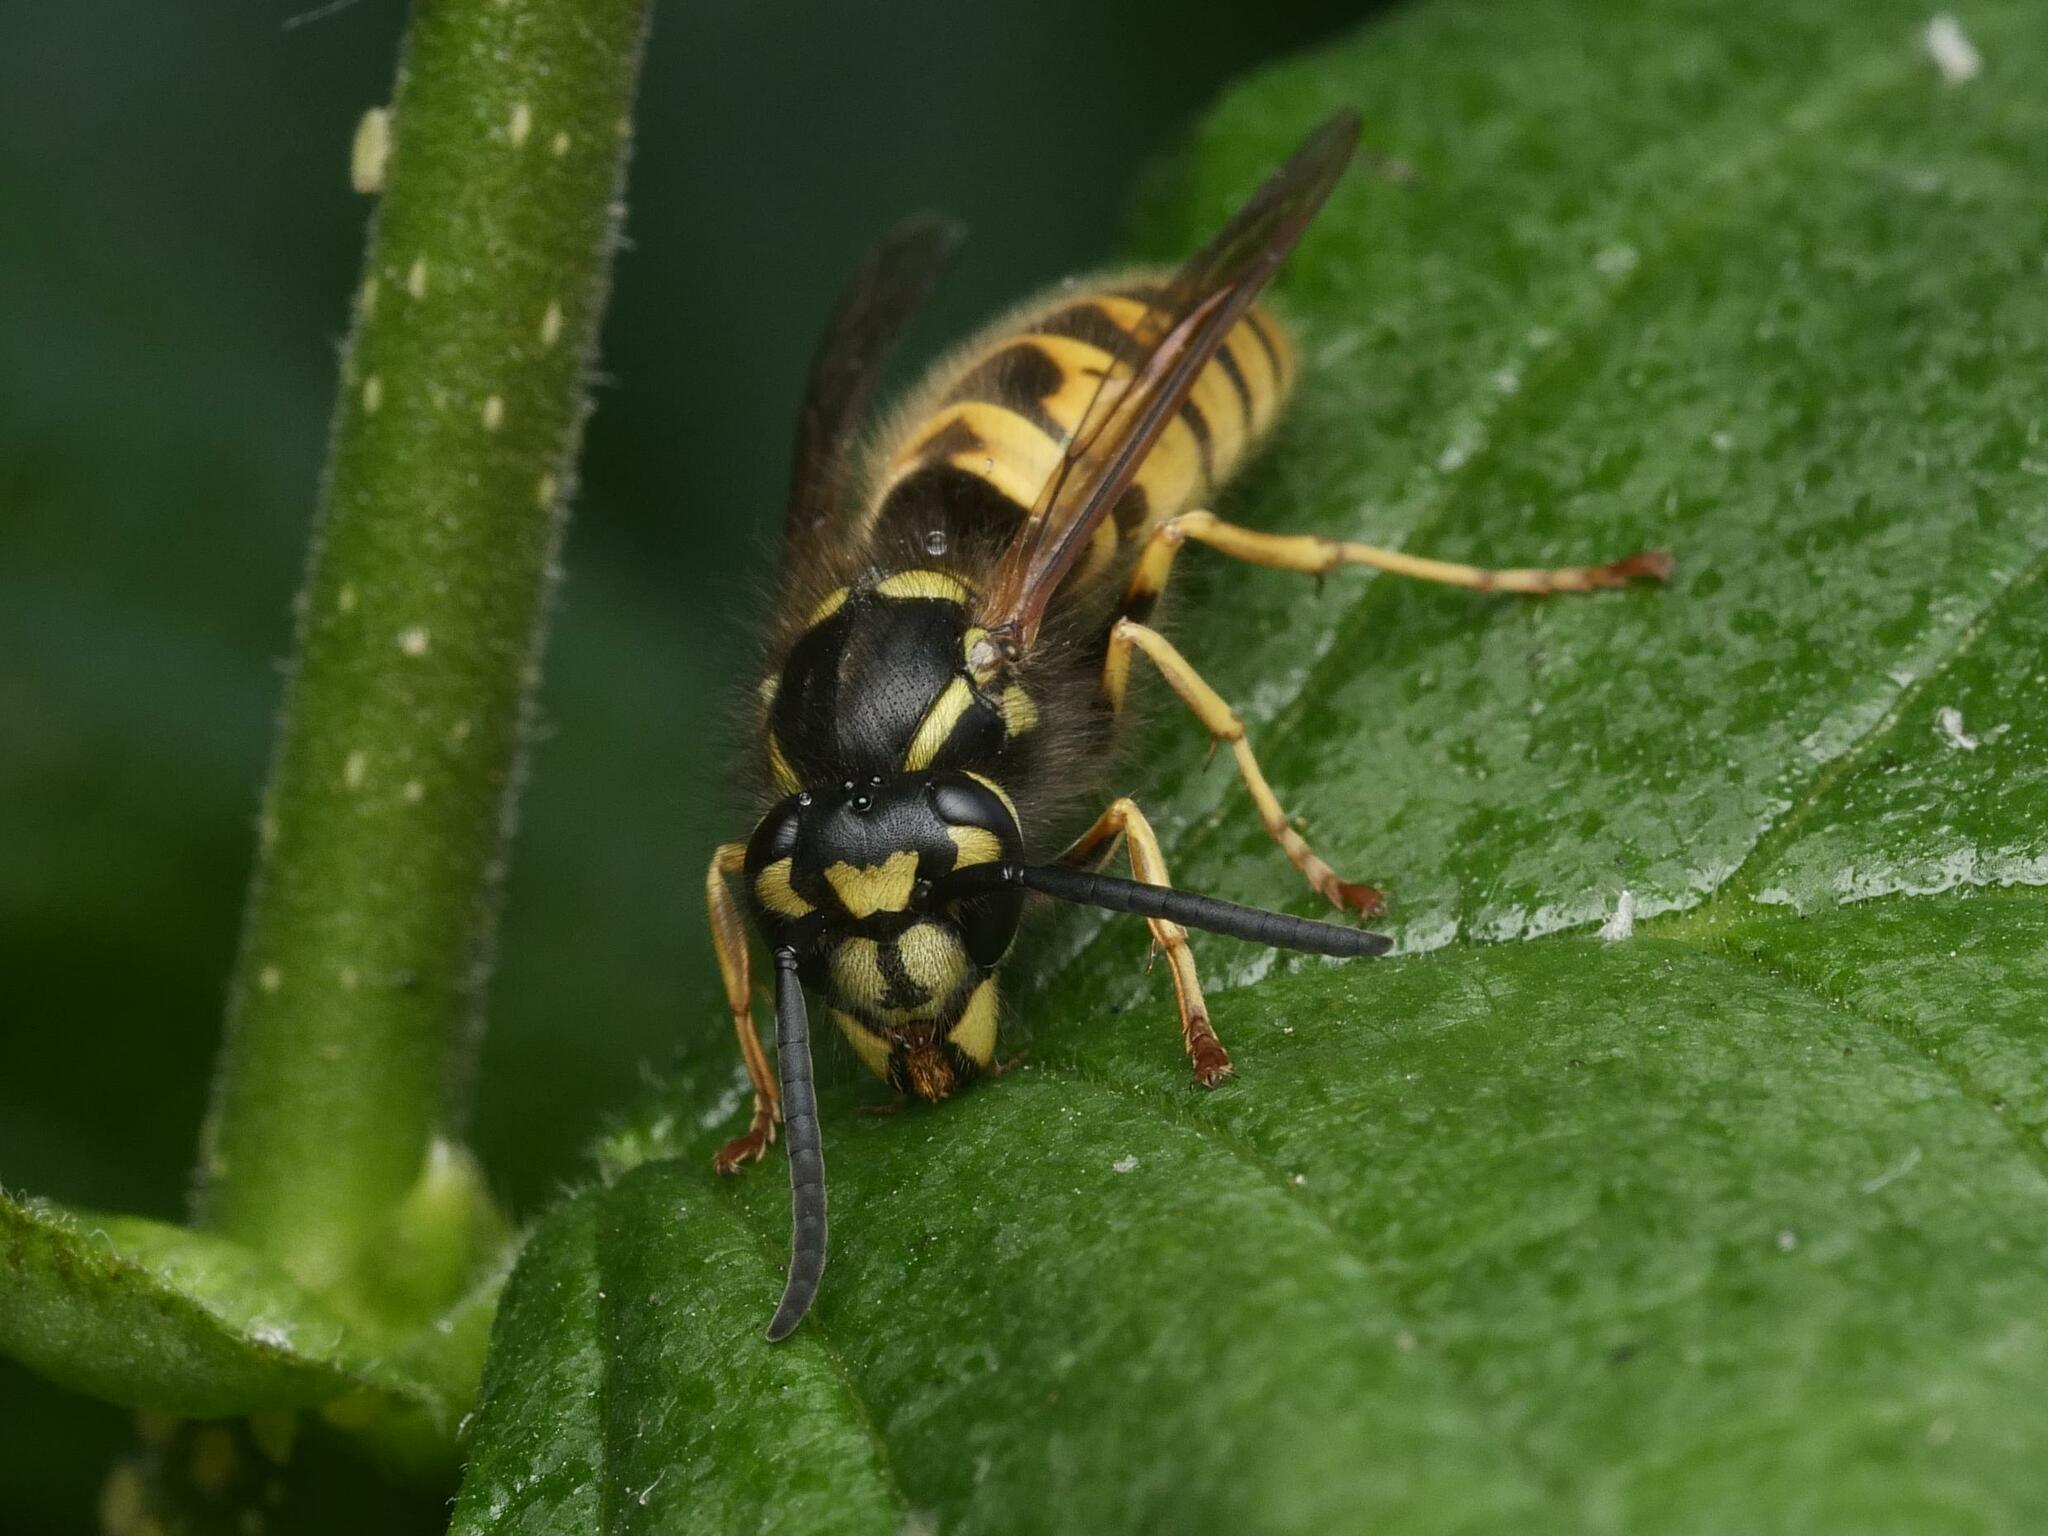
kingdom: Animalia
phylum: Arthropoda
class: Insecta
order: Hymenoptera
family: Vespidae
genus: Vespula
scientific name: Vespula vulgaris
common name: Common wasp
